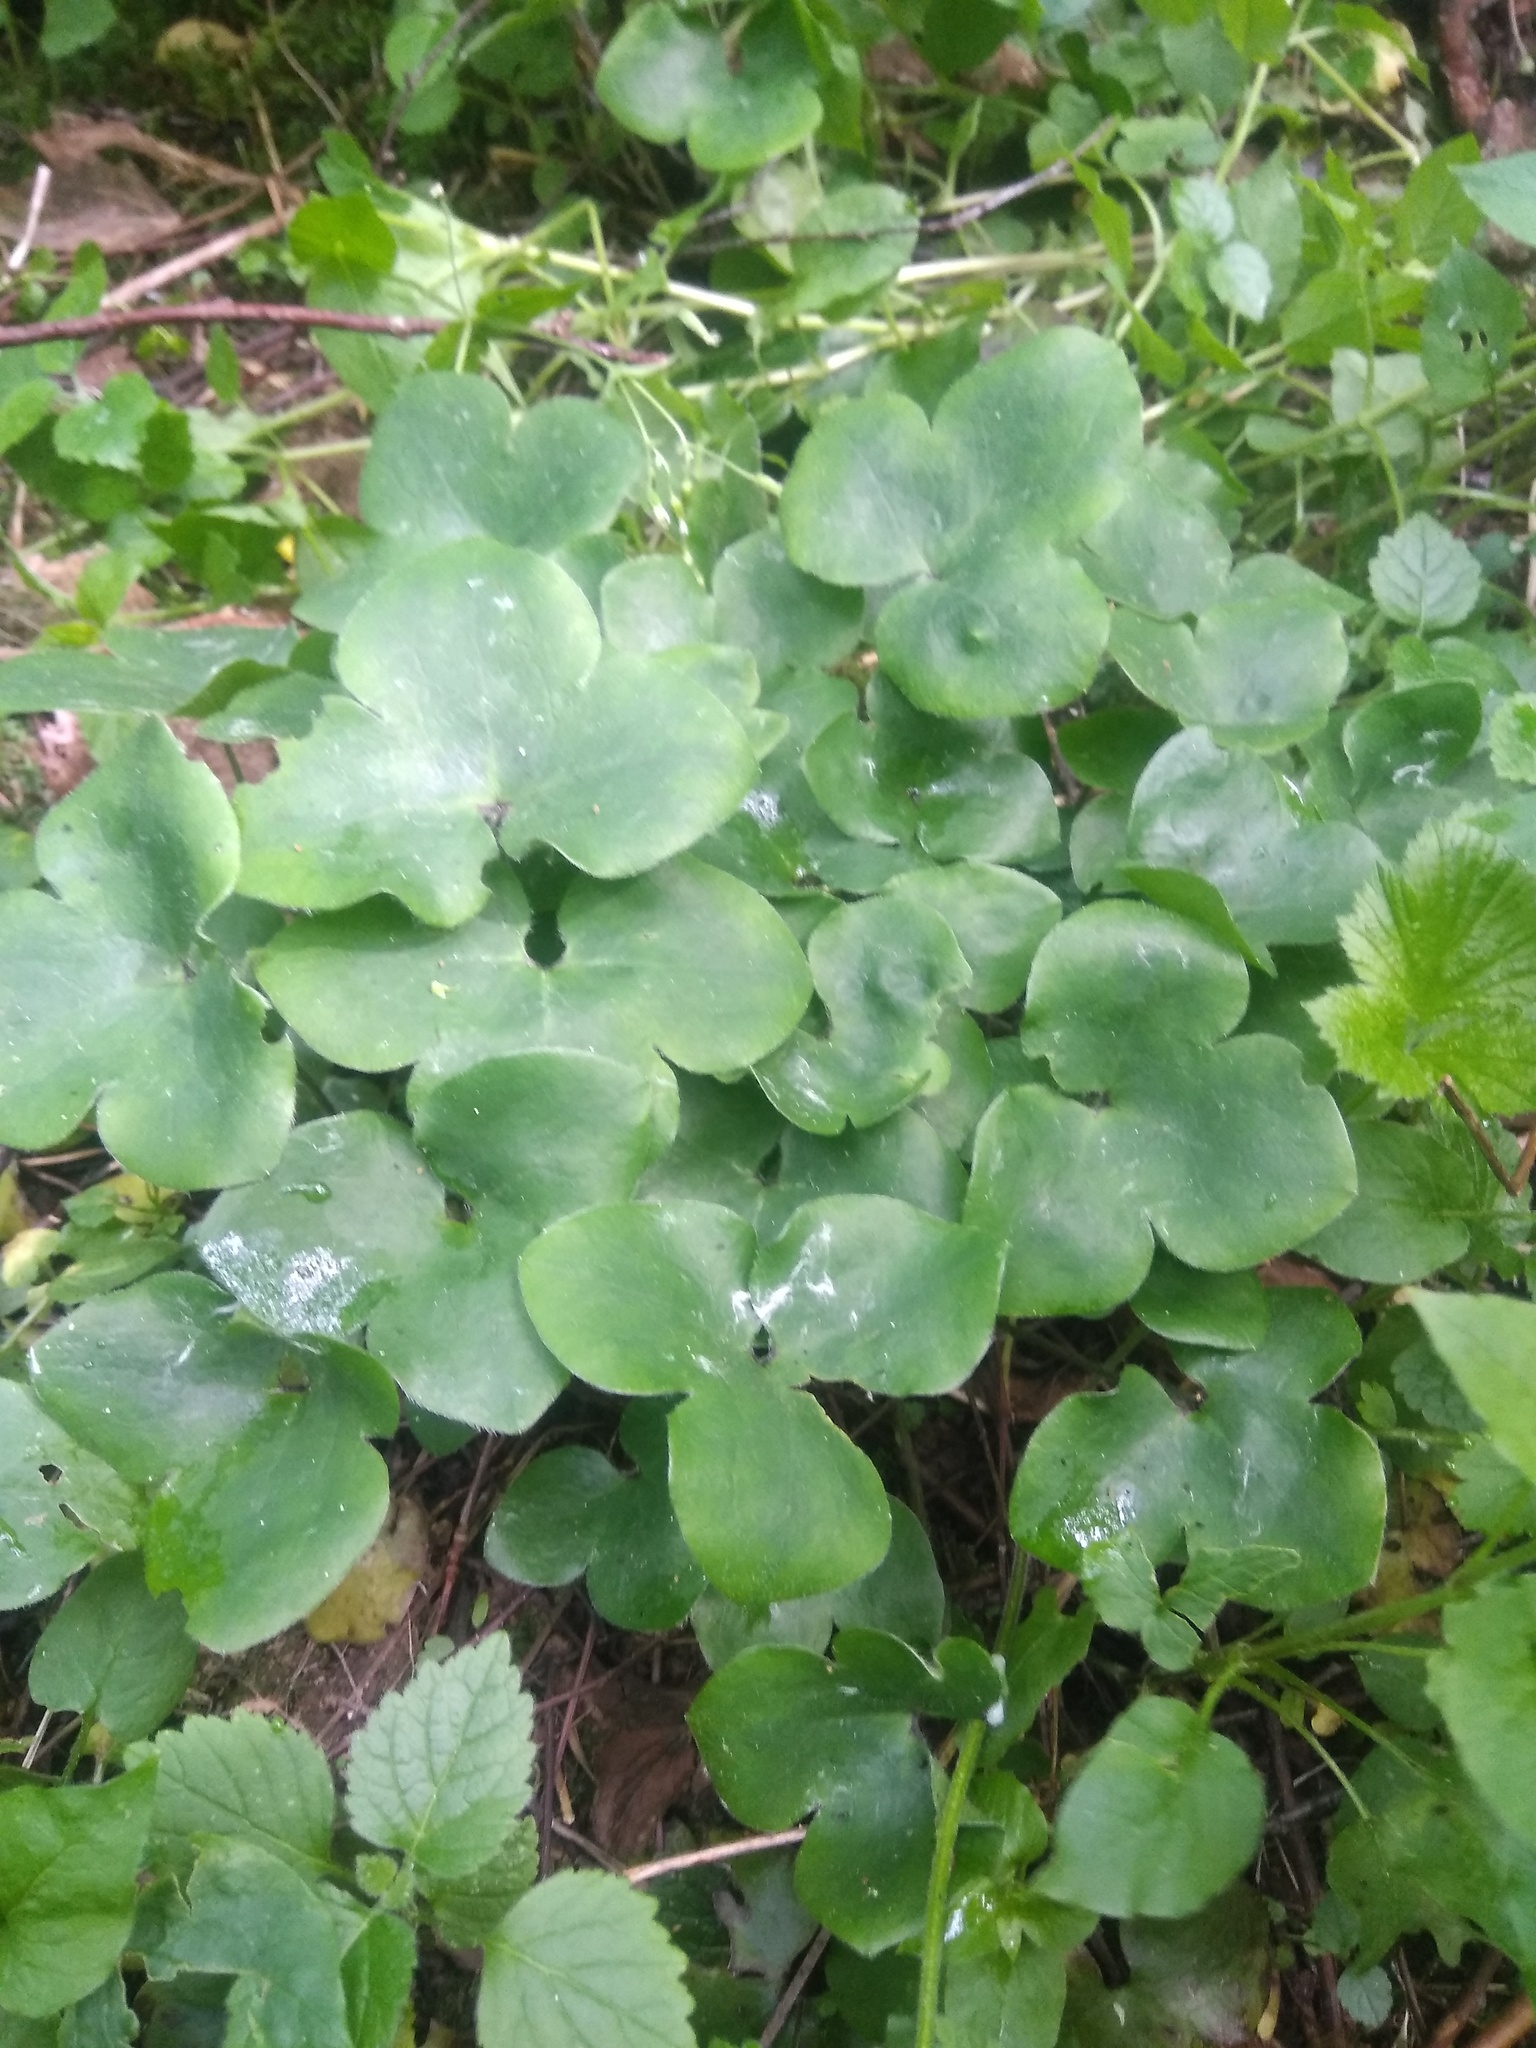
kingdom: Plantae
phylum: Tracheophyta
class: Magnoliopsida
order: Ranunculales
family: Ranunculaceae
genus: Hepatica
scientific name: Hepatica nobilis
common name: Liverleaf
